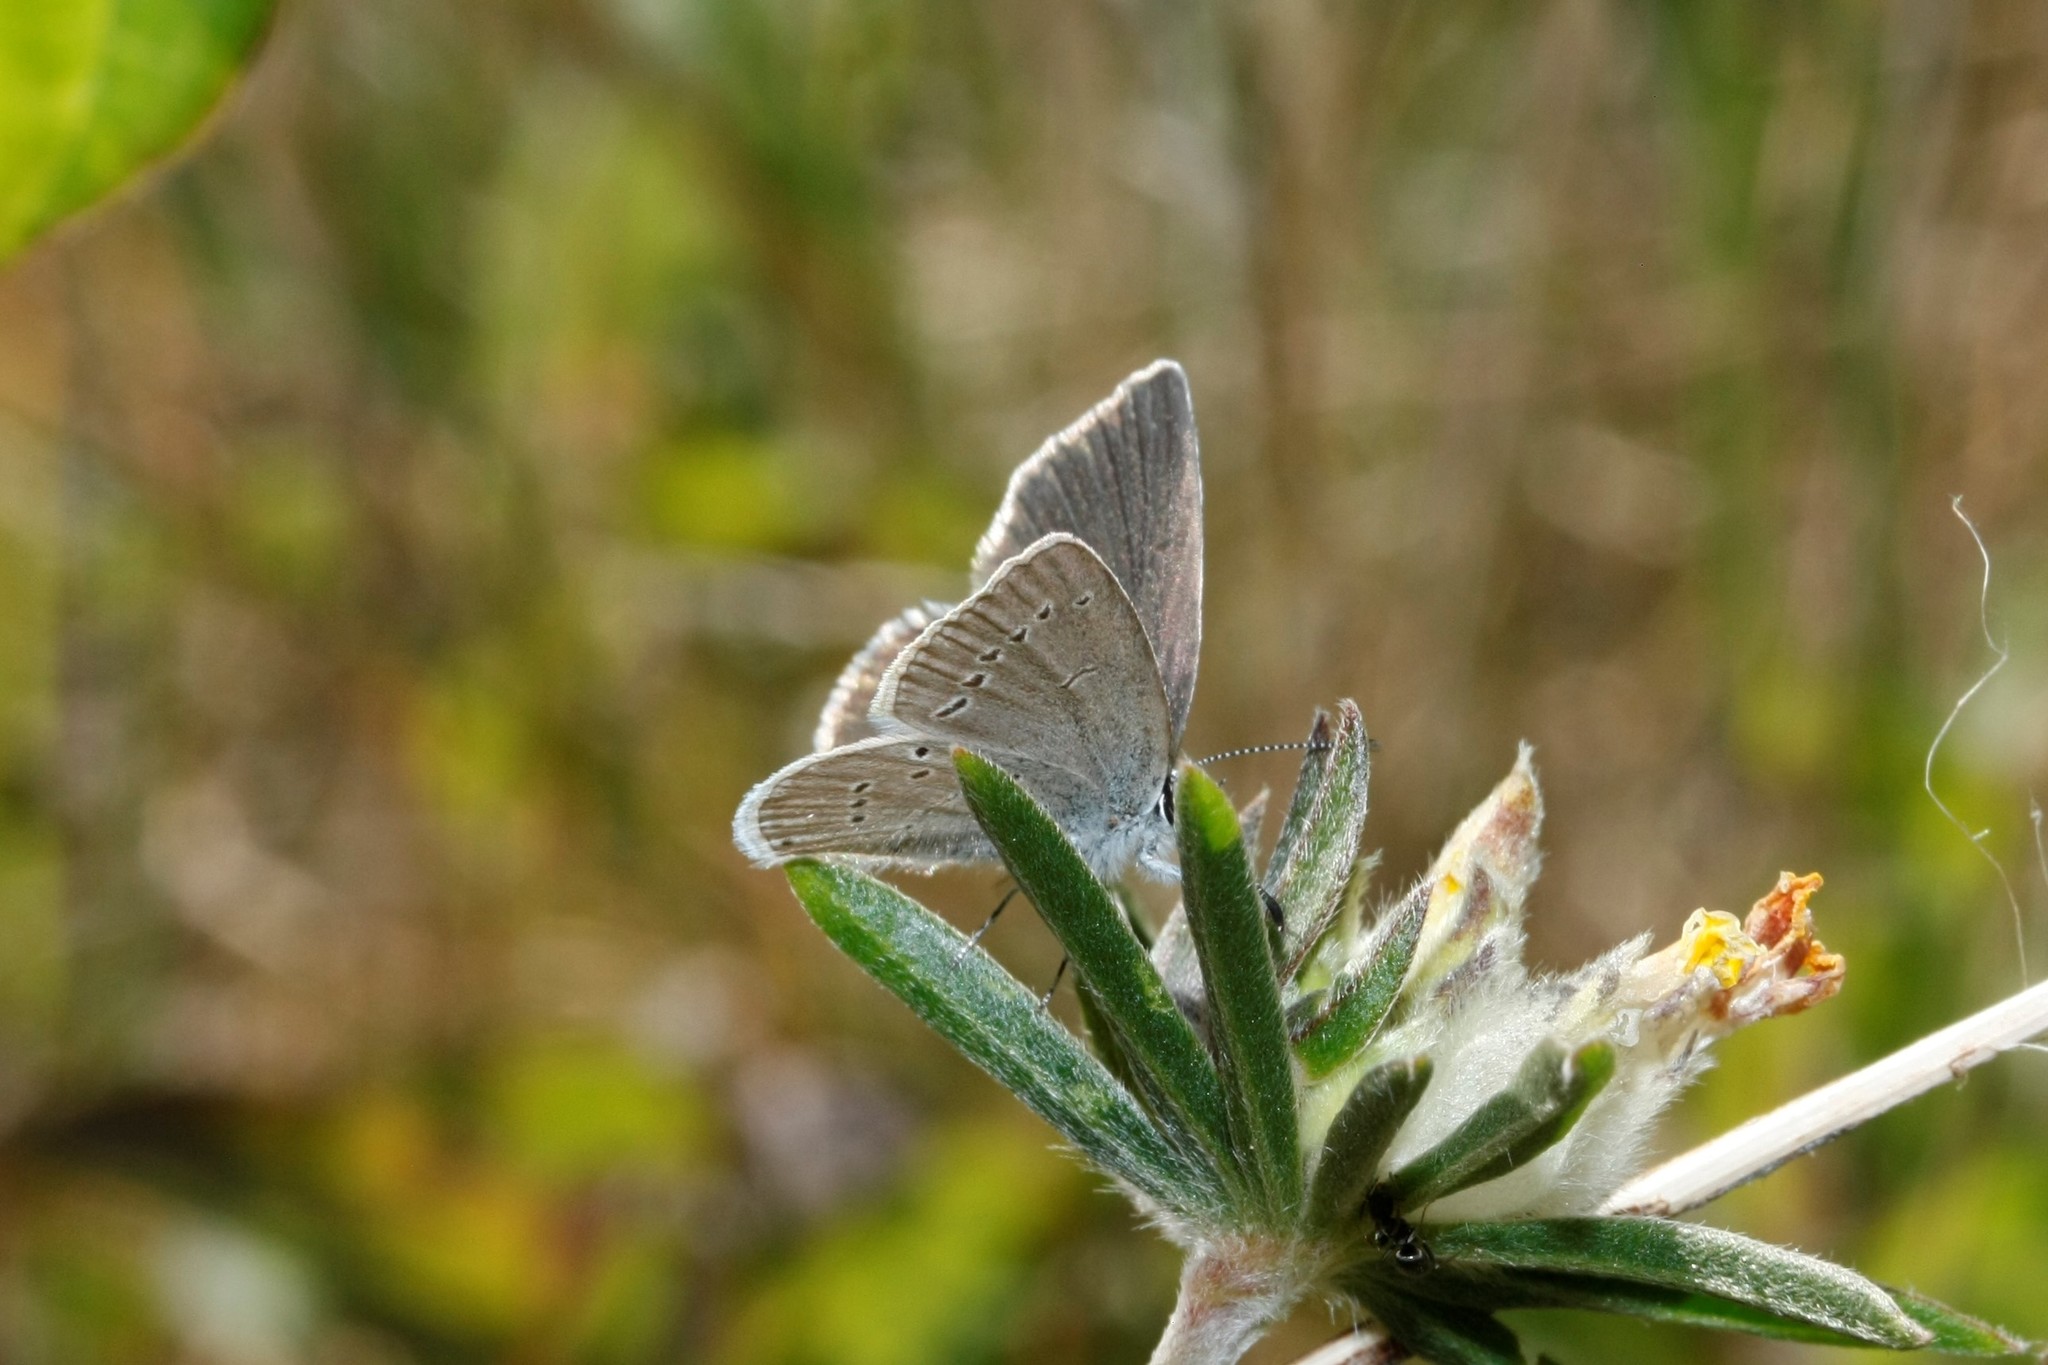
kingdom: Animalia
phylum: Arthropoda
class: Insecta
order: Lepidoptera
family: Lycaenidae
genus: Cupido
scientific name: Cupido minimus
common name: Small blue
